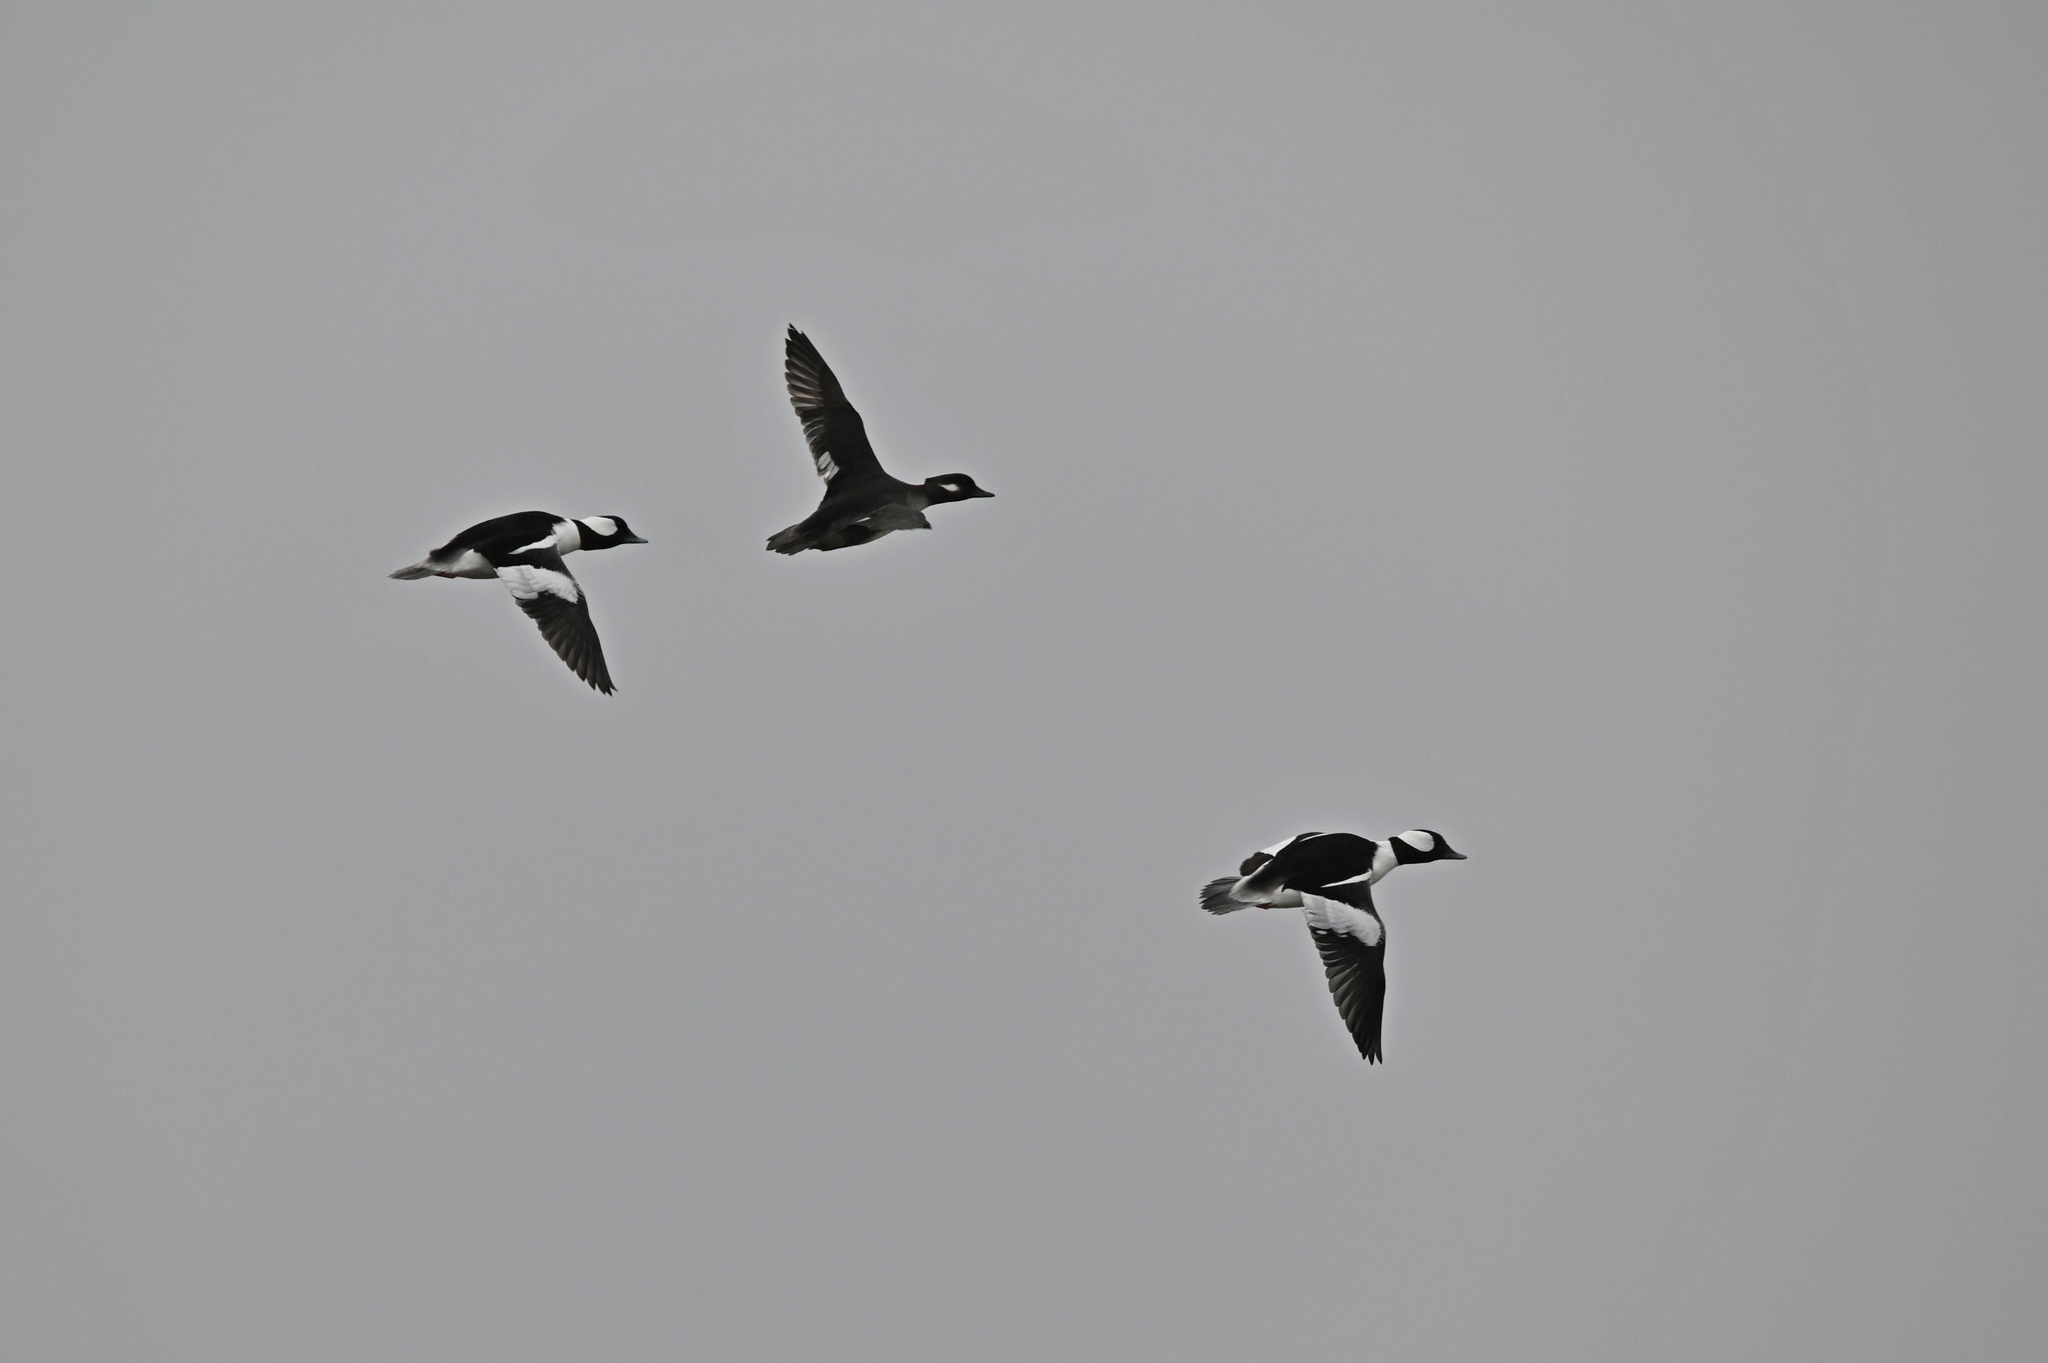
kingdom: Animalia
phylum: Chordata
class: Aves
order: Anseriformes
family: Anatidae
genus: Bucephala
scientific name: Bucephala albeola
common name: Bufflehead
